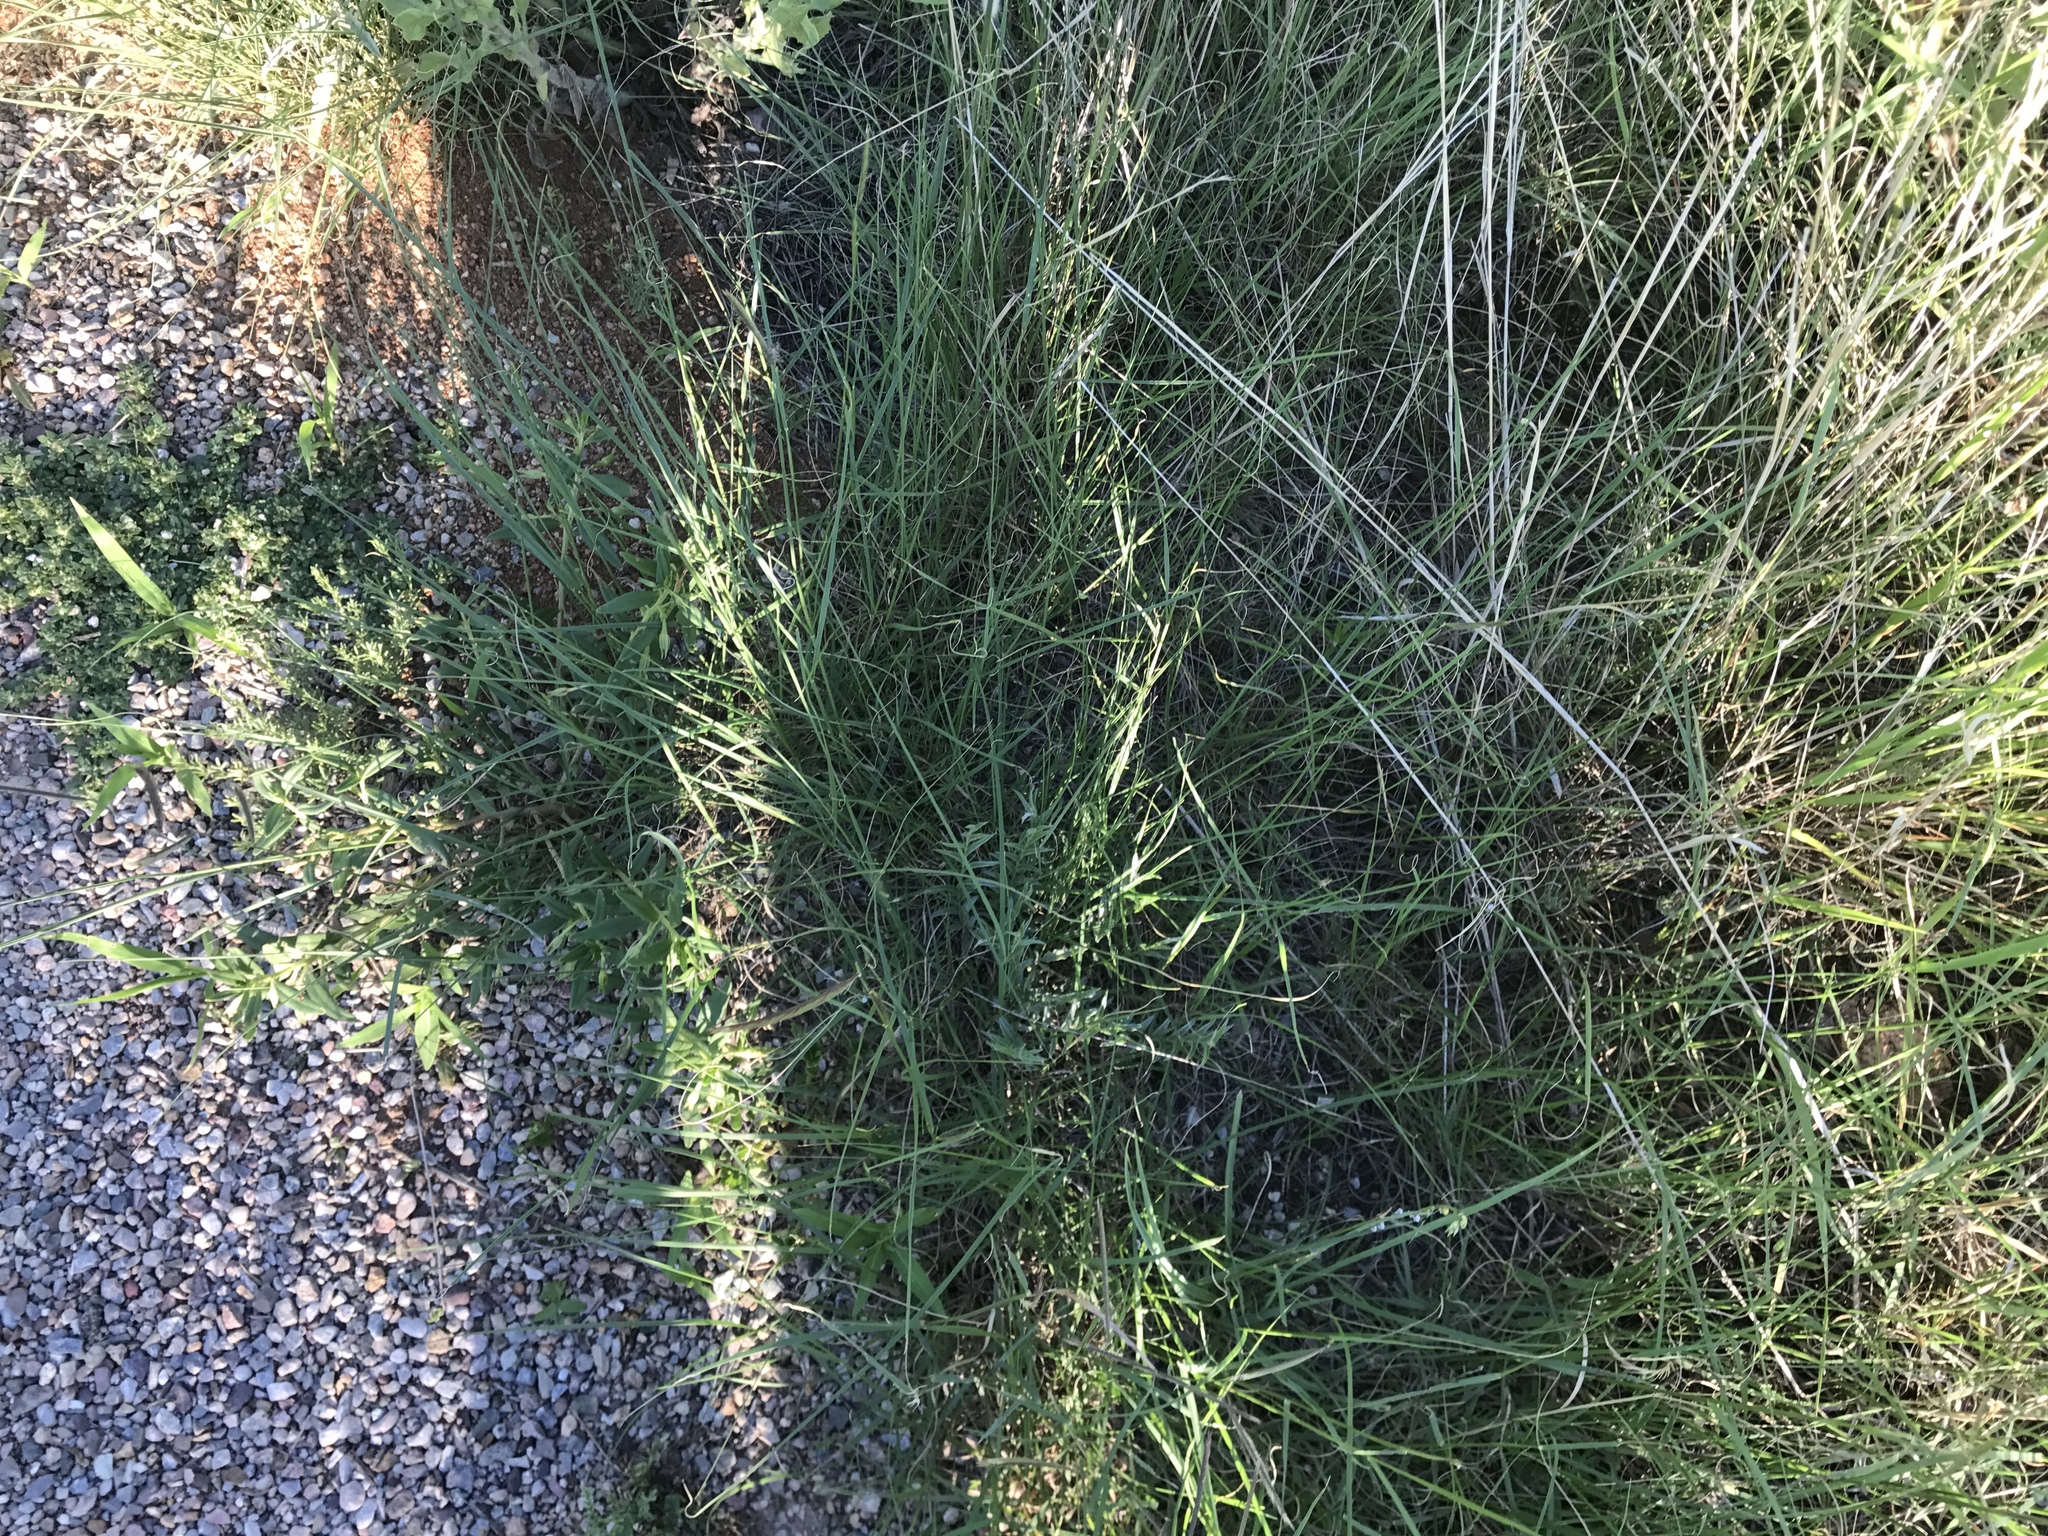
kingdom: Plantae
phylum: Tracheophyta
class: Liliopsida
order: Poales
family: Poaceae
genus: Bouteloua
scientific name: Bouteloua gracilis
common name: Blue grama
